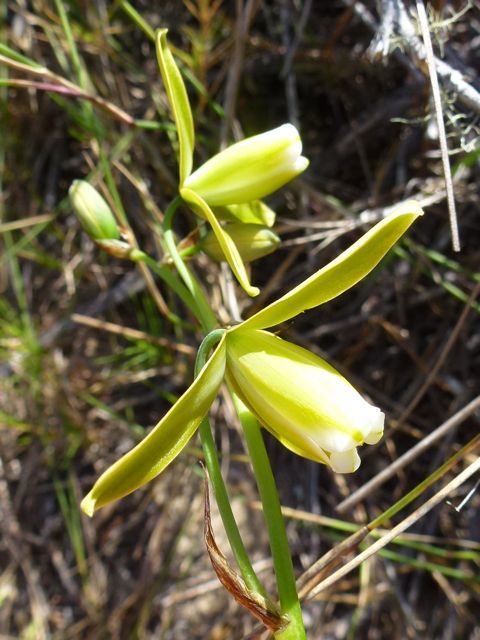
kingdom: Plantae
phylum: Tracheophyta
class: Liliopsida
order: Asparagales
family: Asparagaceae
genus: Albuca
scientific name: Albuca cooperi
